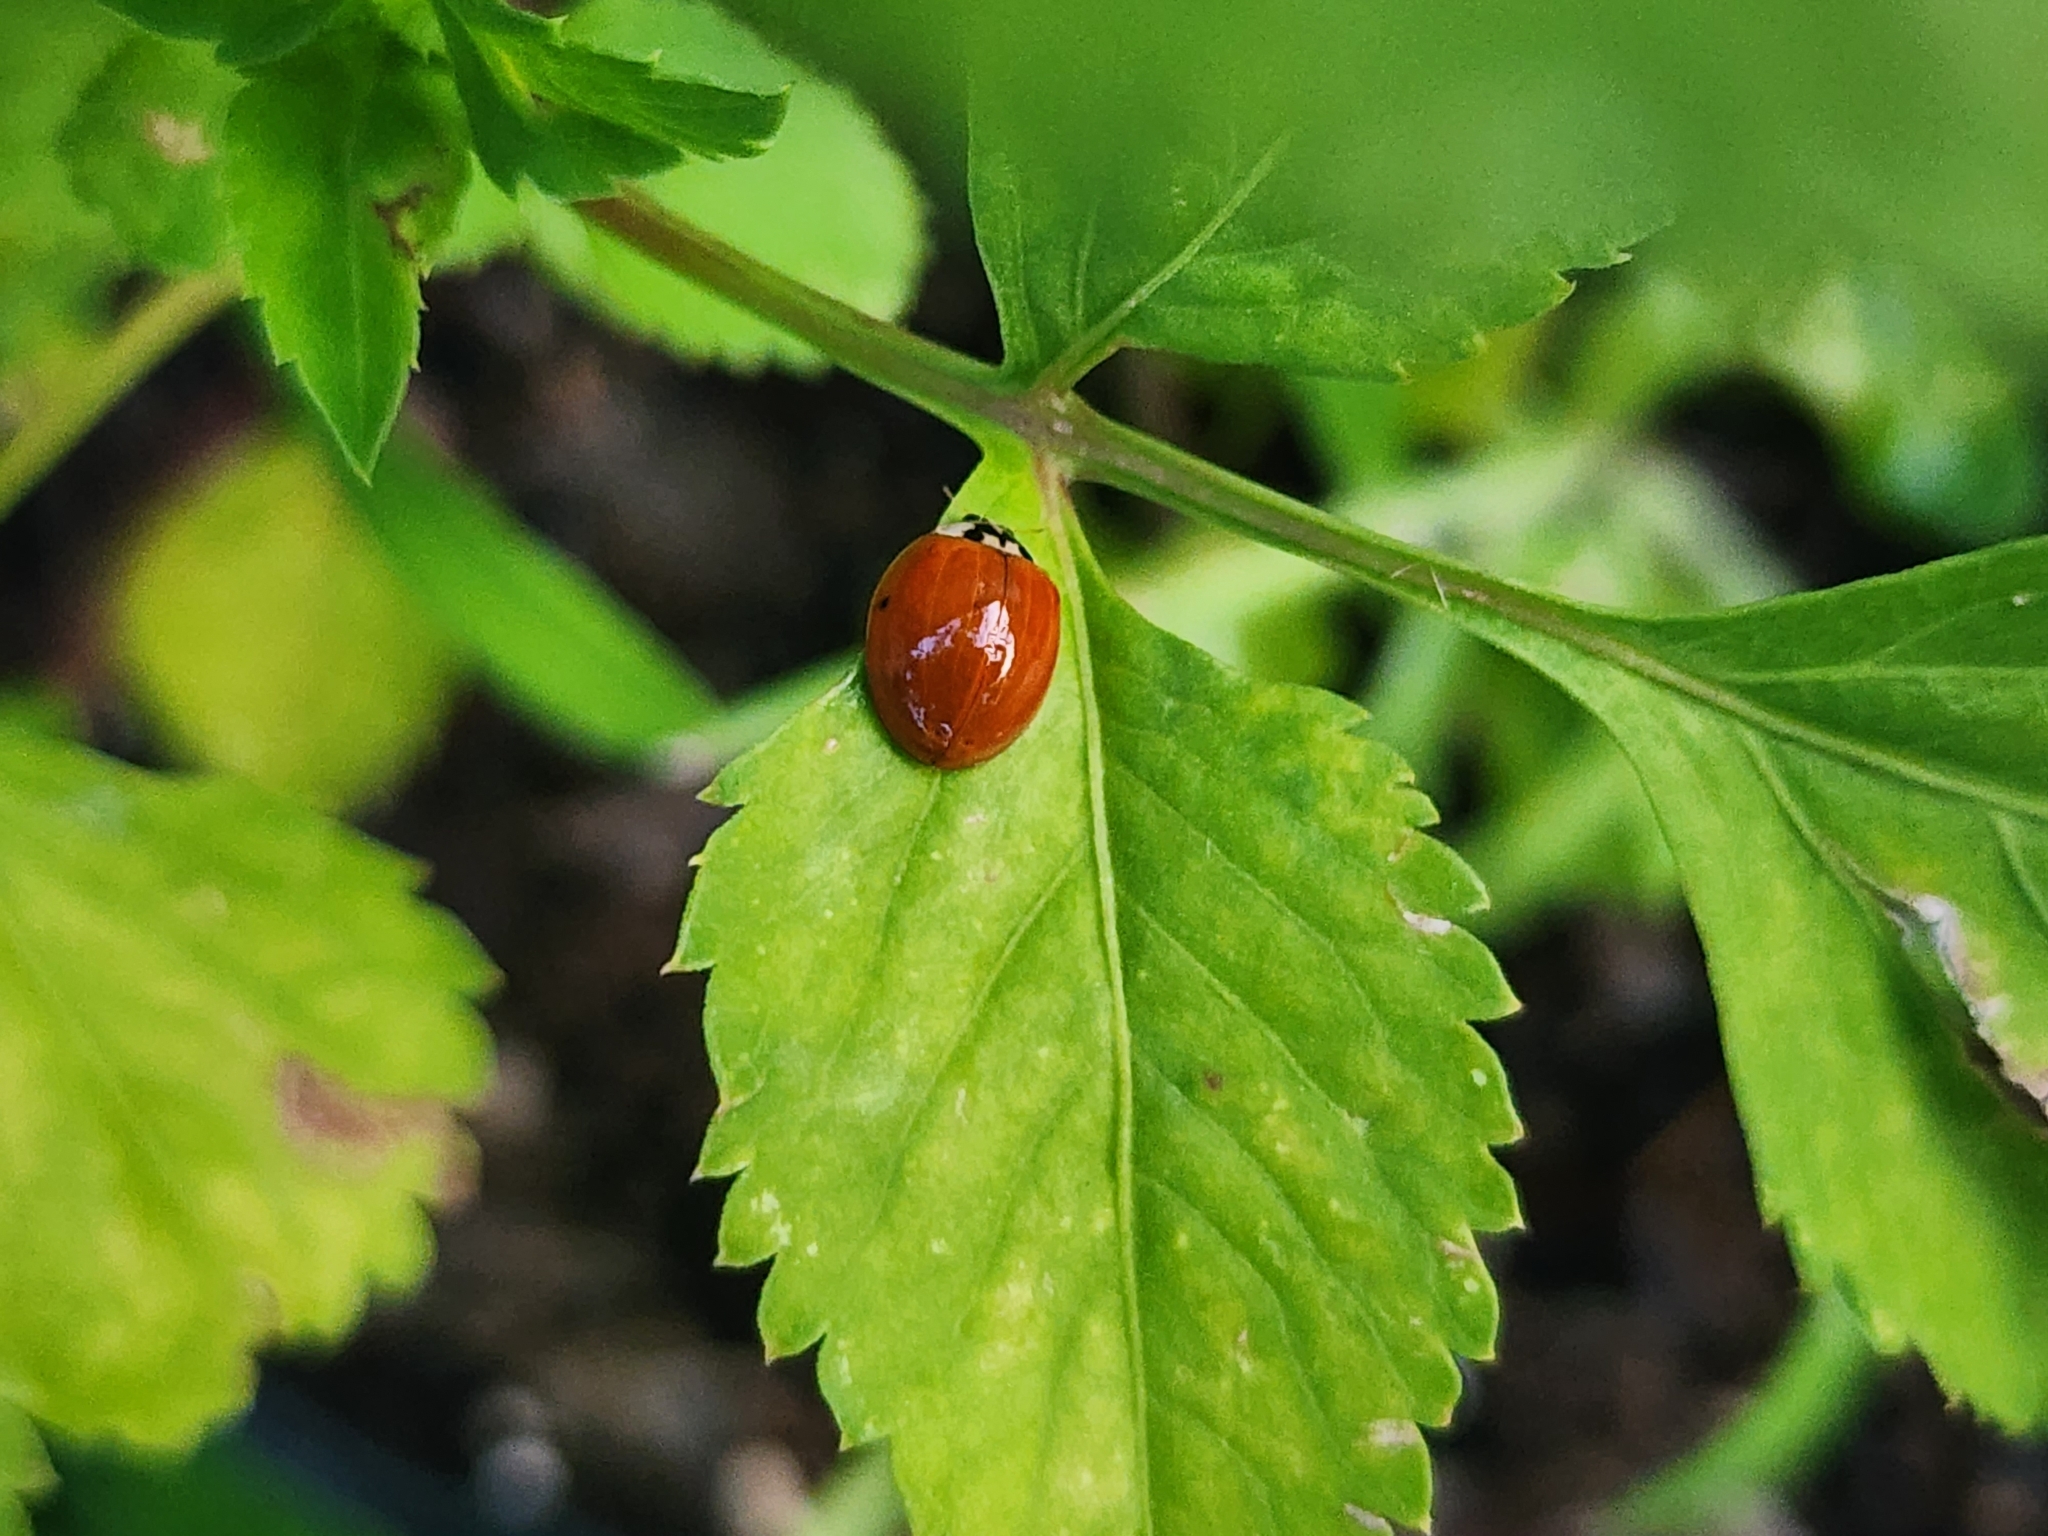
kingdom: Animalia
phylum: Arthropoda
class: Insecta
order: Coleoptera
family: Coccinellidae
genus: Harmonia
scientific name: Harmonia axyridis
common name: Harlequin ladybird
